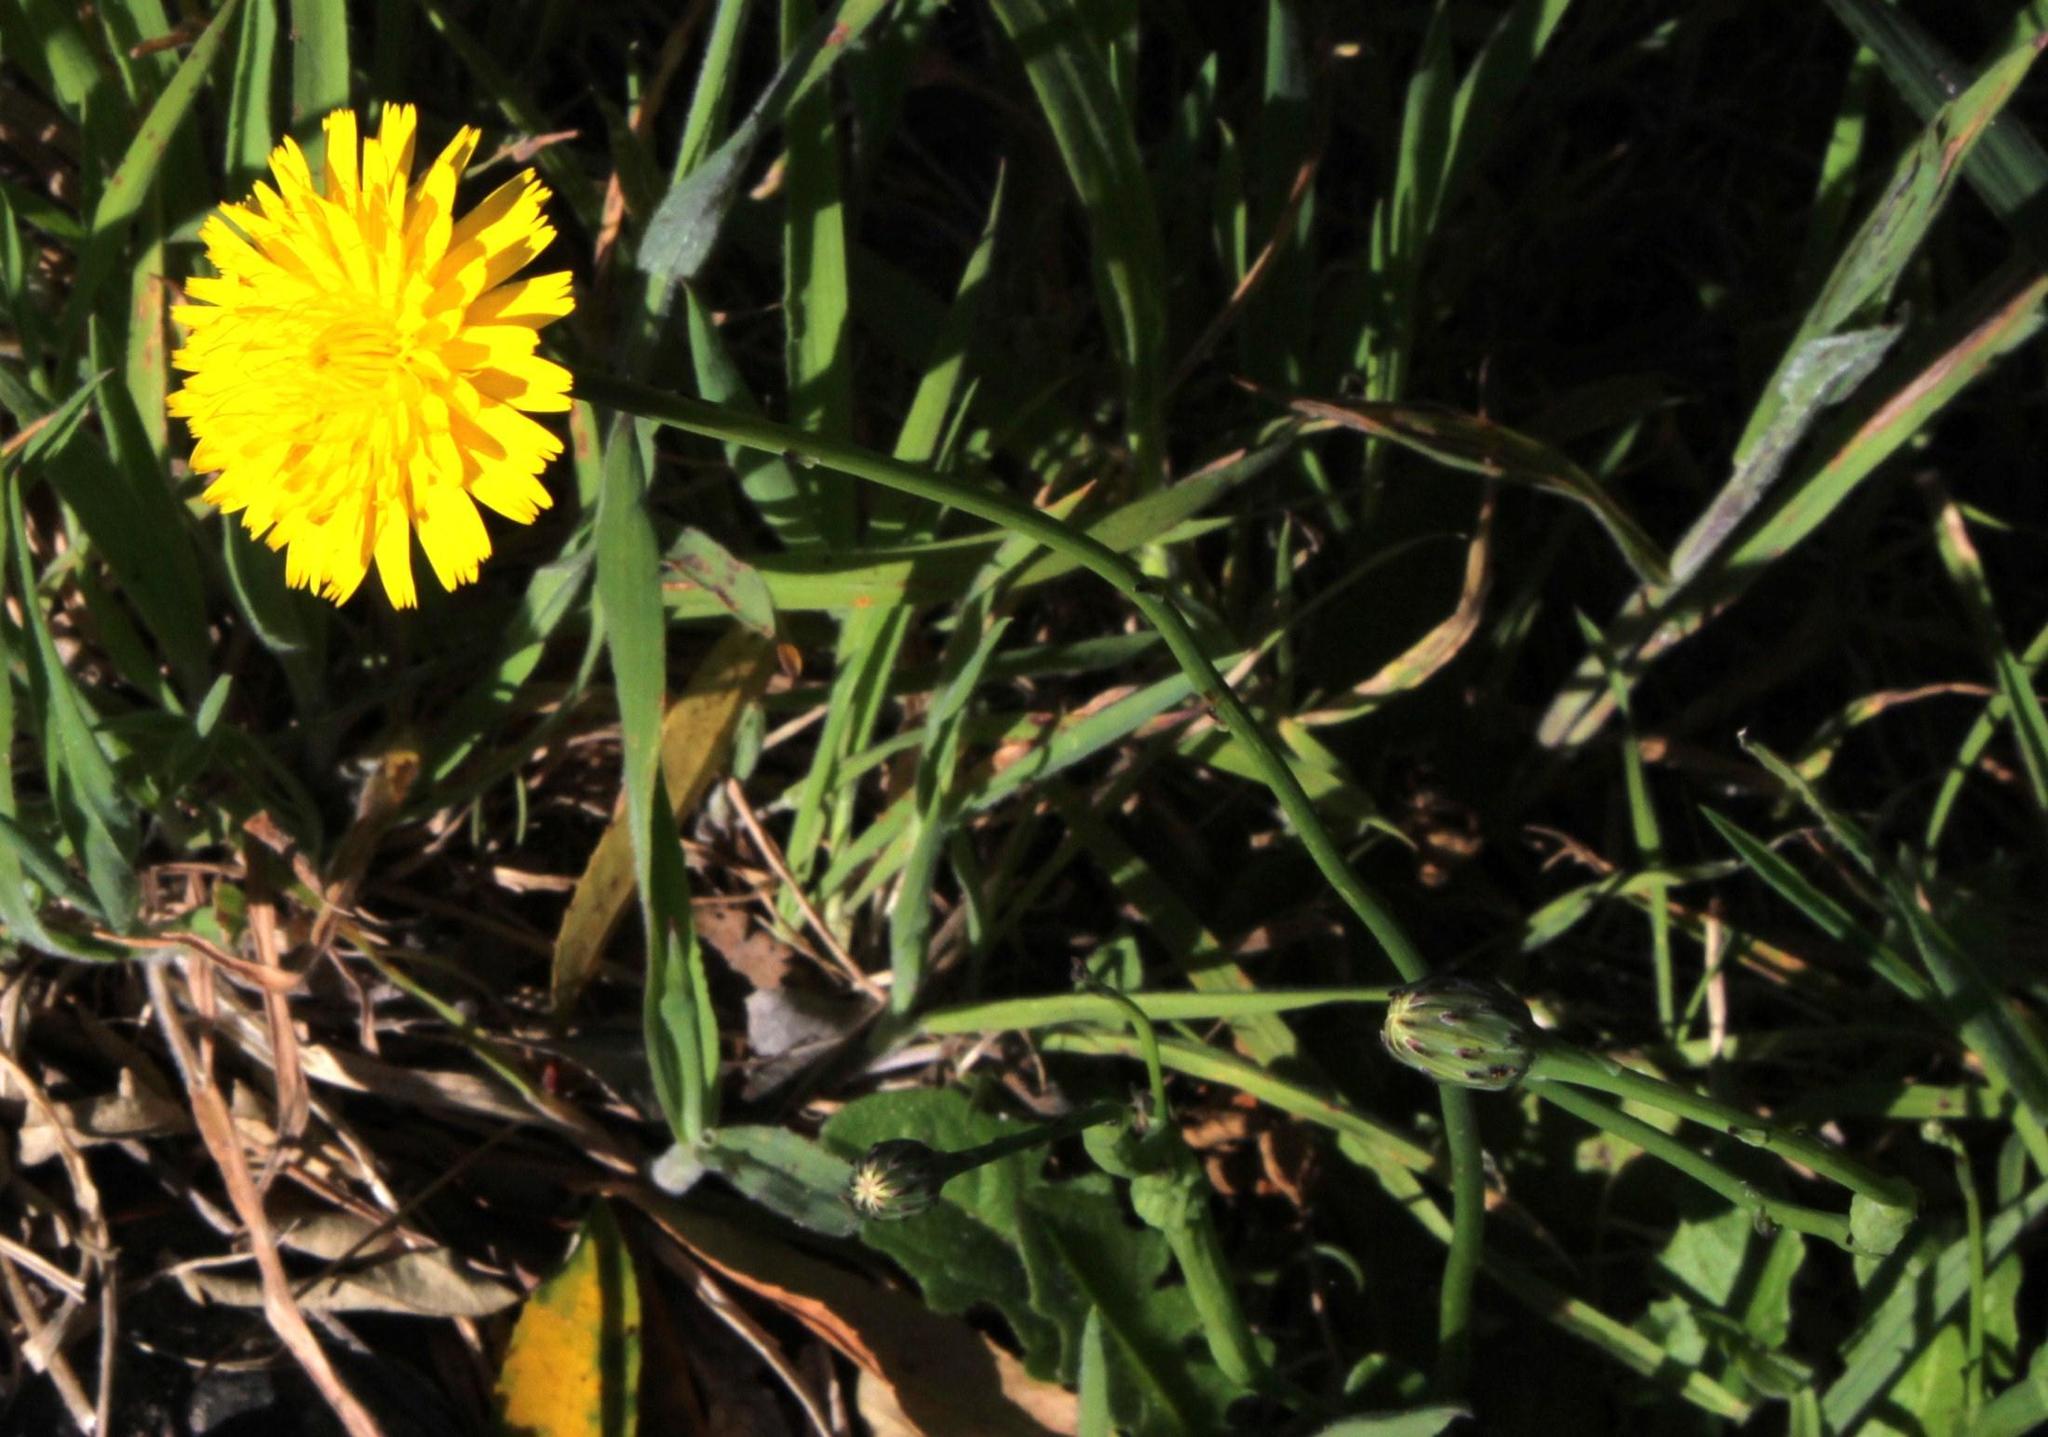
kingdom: Plantae
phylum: Tracheophyta
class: Magnoliopsida
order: Asterales
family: Asteraceae
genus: Hypochaeris
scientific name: Hypochaeris radicata
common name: Flatweed
